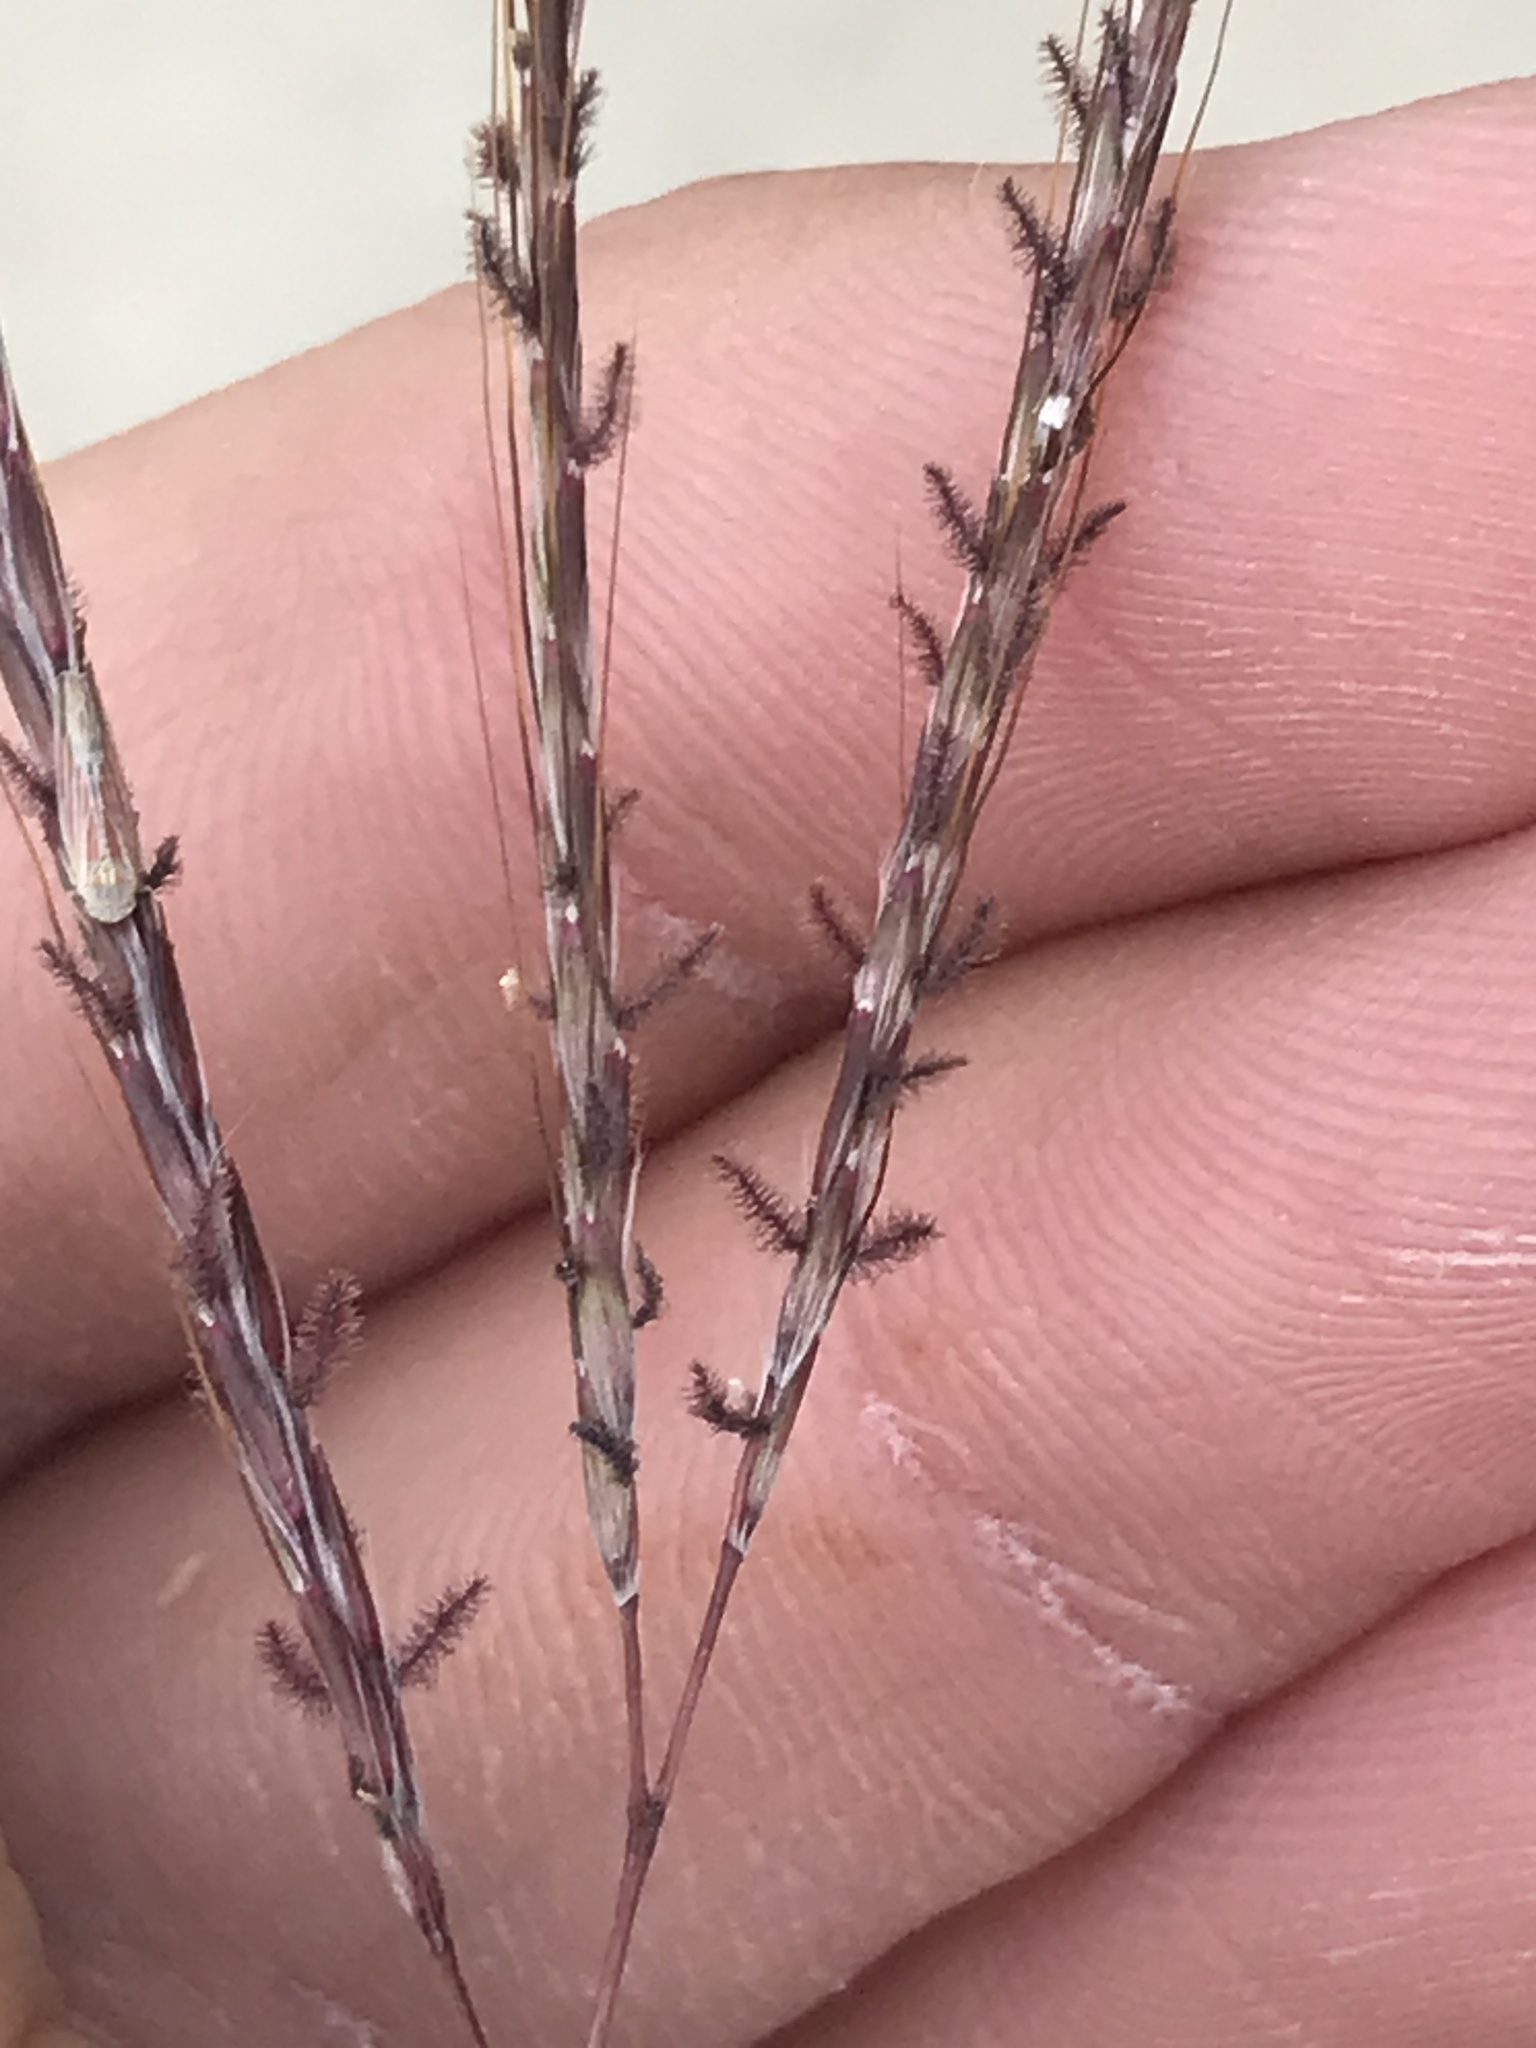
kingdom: Plantae
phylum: Tracheophyta
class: Liliopsida
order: Poales
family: Poaceae
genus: Bothriochloa
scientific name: Bothriochloa ischaemum
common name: Yellow bluestem
